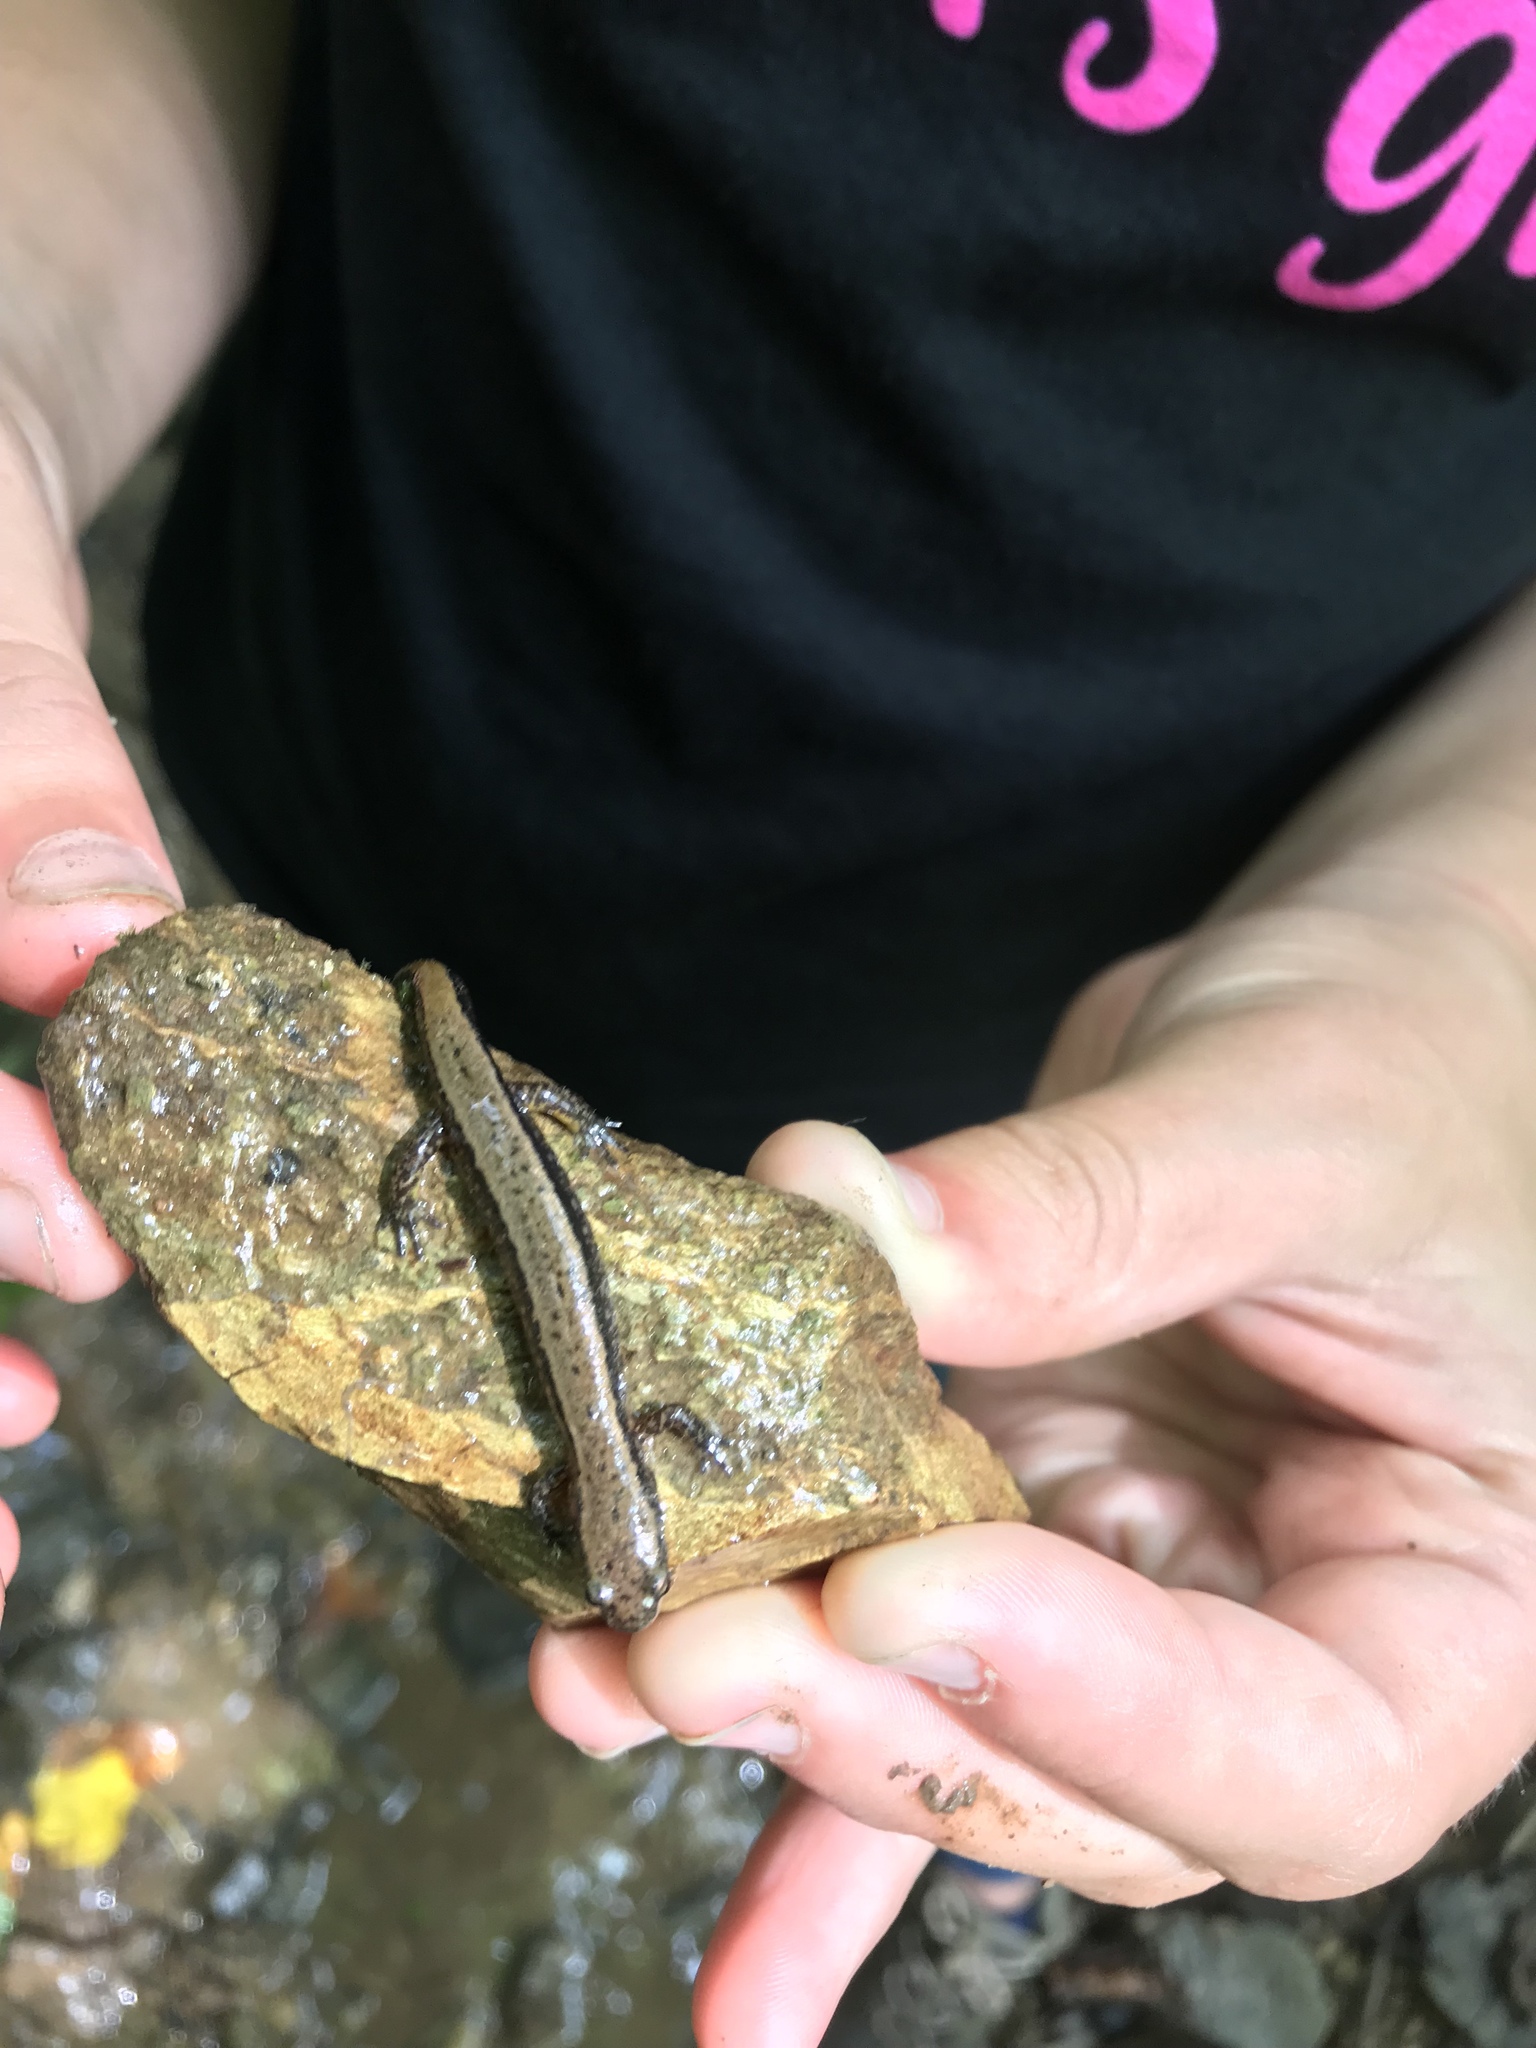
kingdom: Animalia
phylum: Chordata
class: Amphibia
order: Caudata
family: Plethodontidae
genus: Eurycea
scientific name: Eurycea bislineata
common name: Northern two-lined salamander
